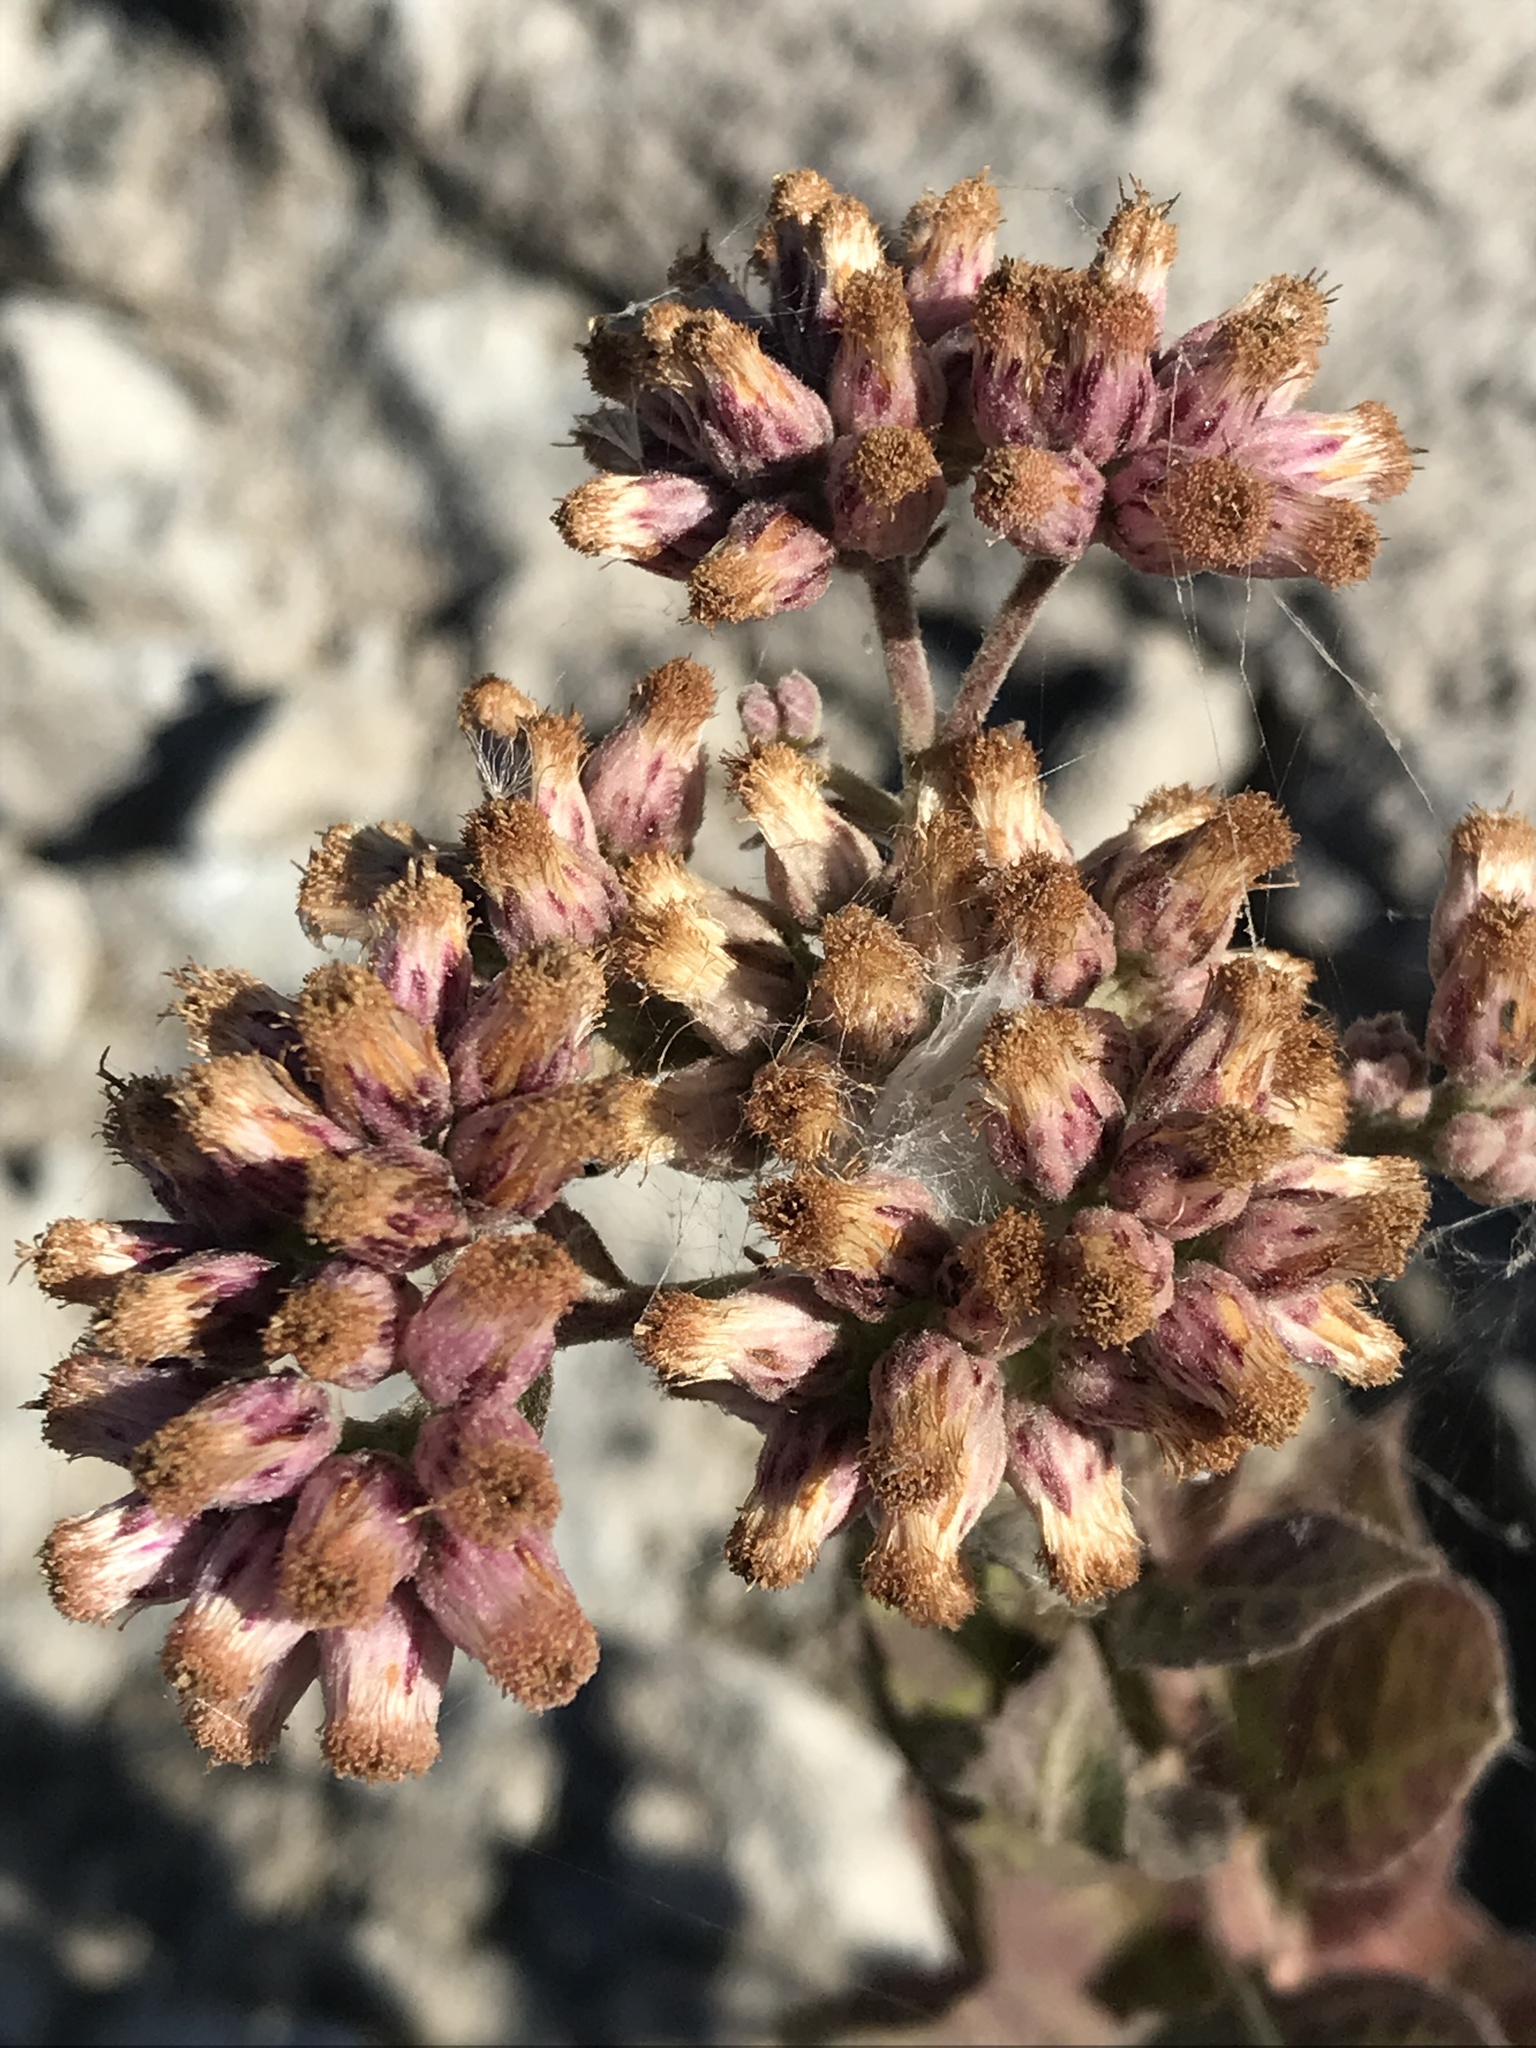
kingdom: Plantae
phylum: Tracheophyta
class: Magnoliopsida
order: Asterales
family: Asteraceae
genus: Pluchea
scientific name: Pluchea odorata
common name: Saltmarsh fleabane
